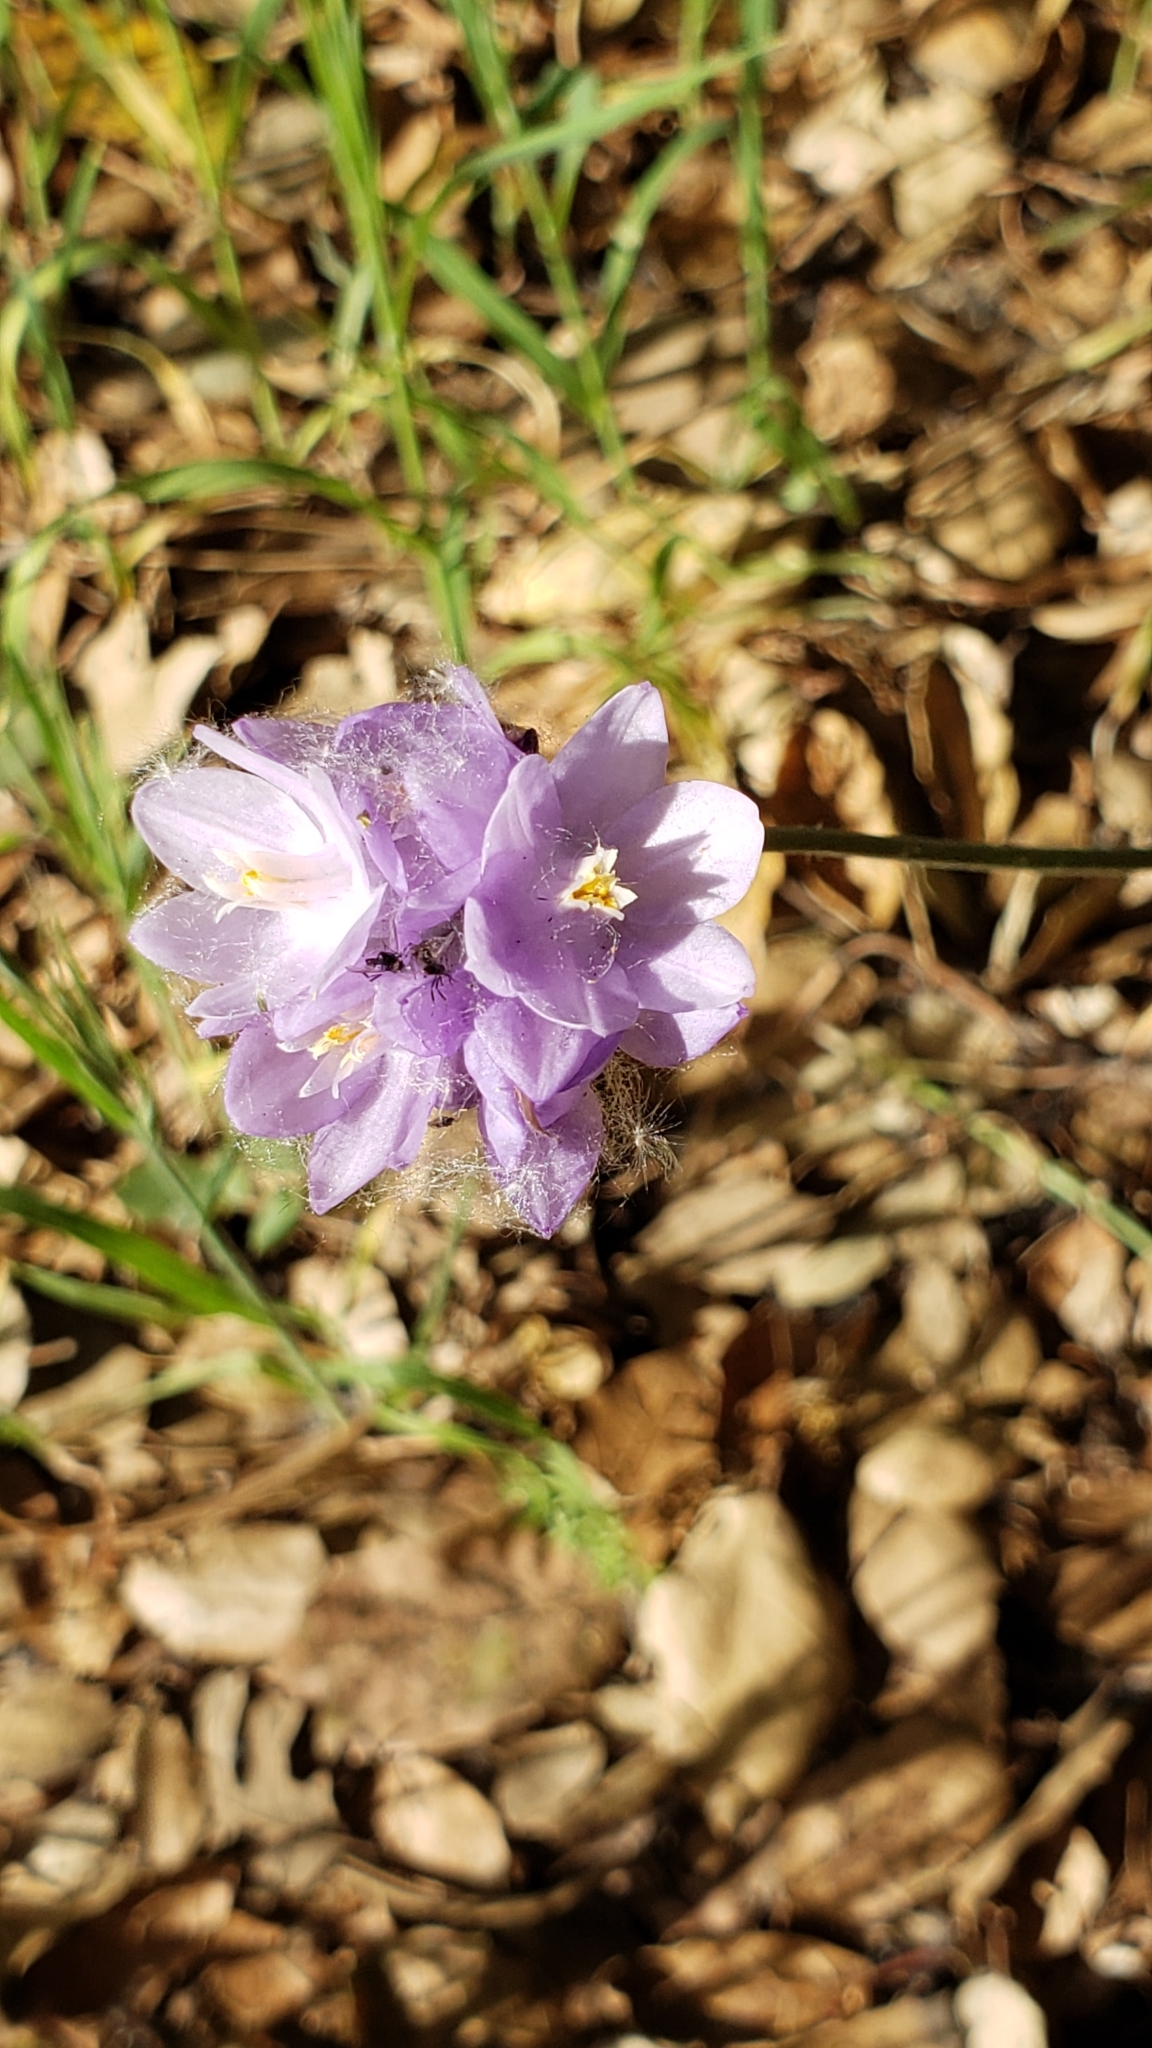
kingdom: Plantae
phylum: Tracheophyta
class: Liliopsida
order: Asparagales
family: Asparagaceae
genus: Dipterostemon
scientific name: Dipterostemon capitatus
